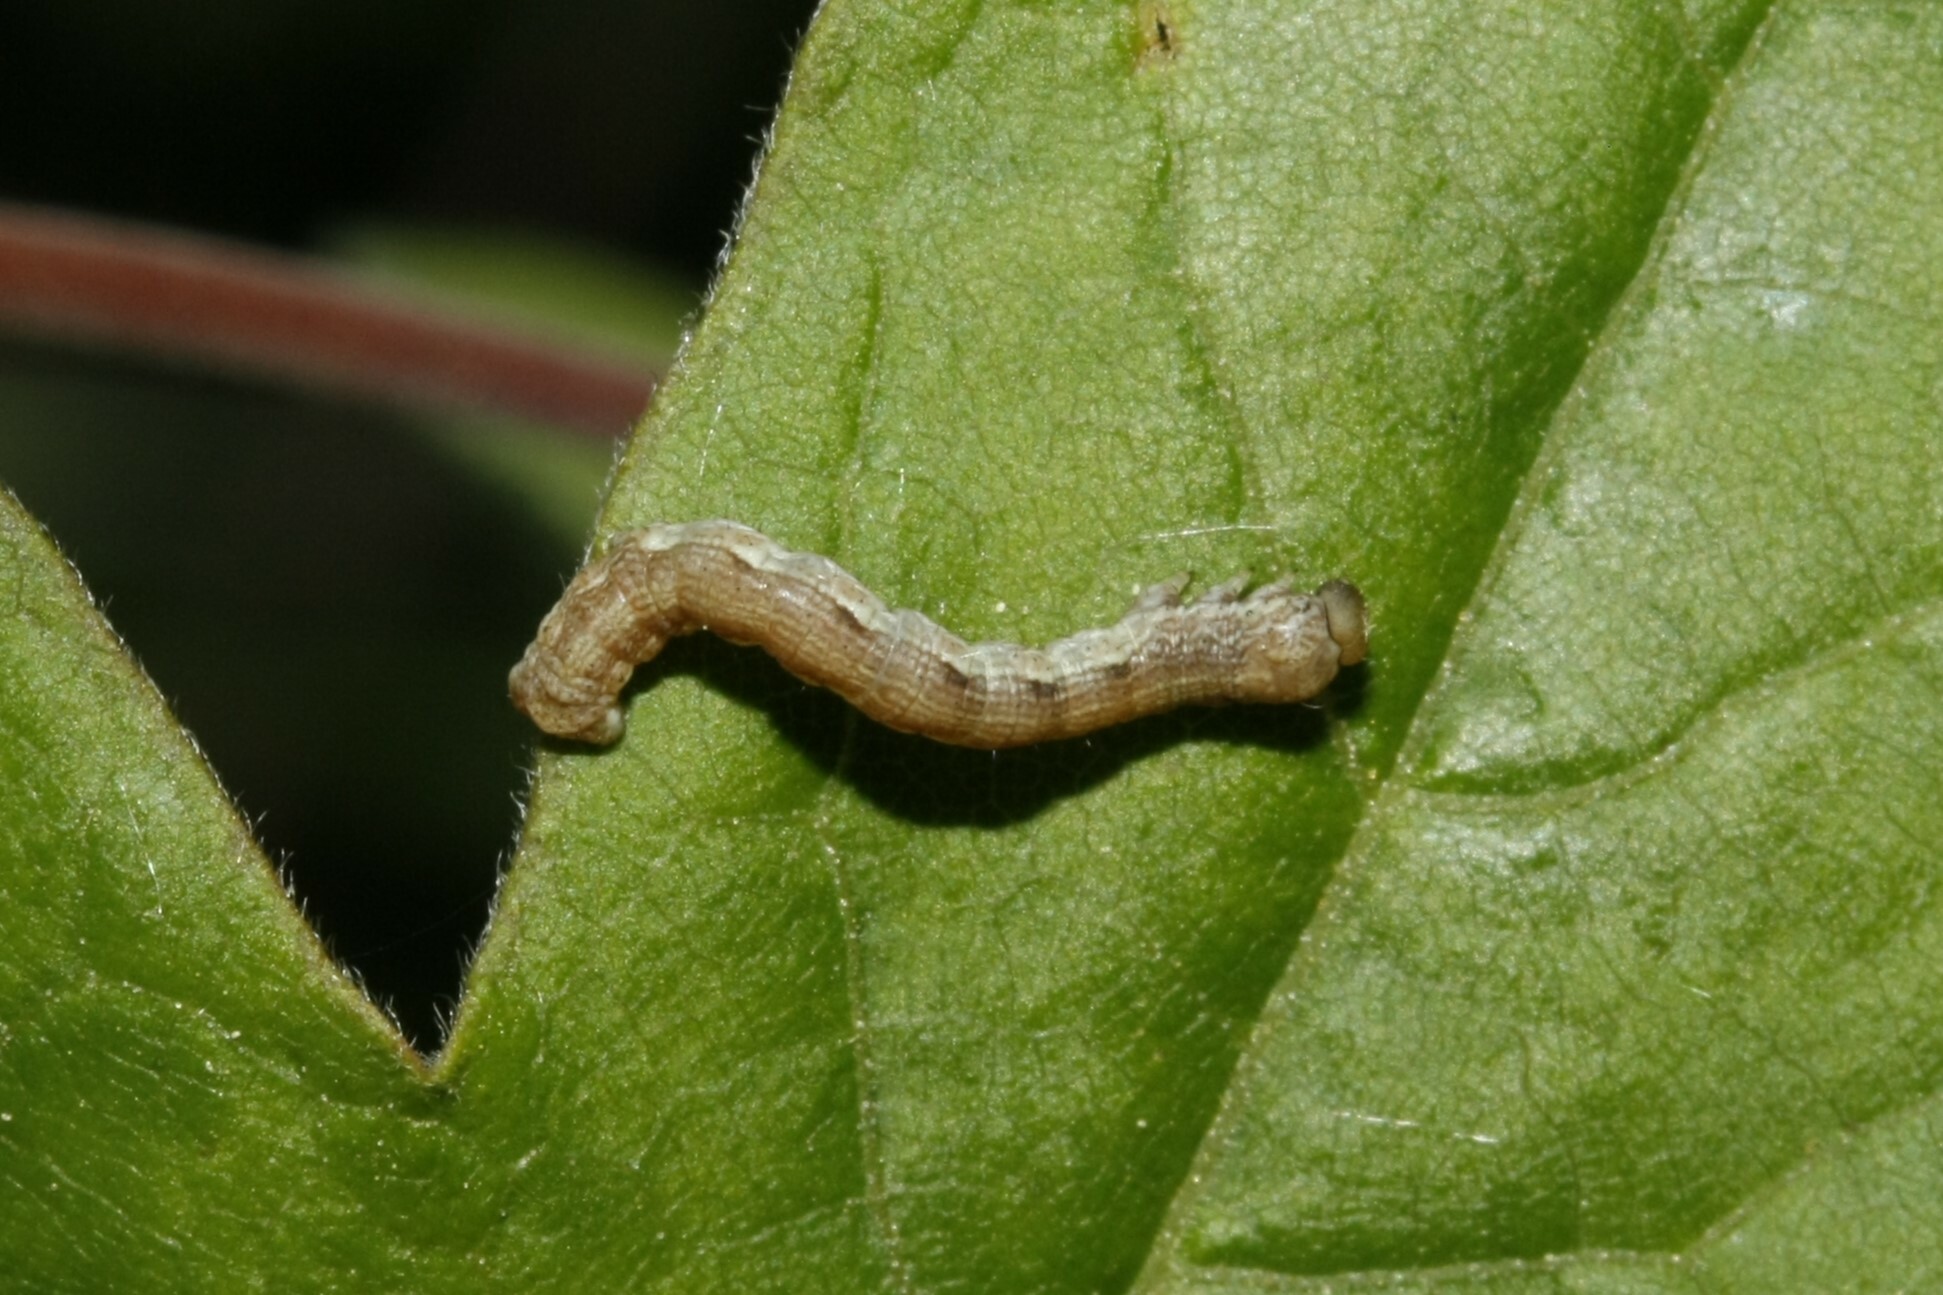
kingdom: Animalia
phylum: Arthropoda
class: Insecta
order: Lepidoptera
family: Geometridae
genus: Erannis
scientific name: Erannis defoliaria
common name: Mottled umber
